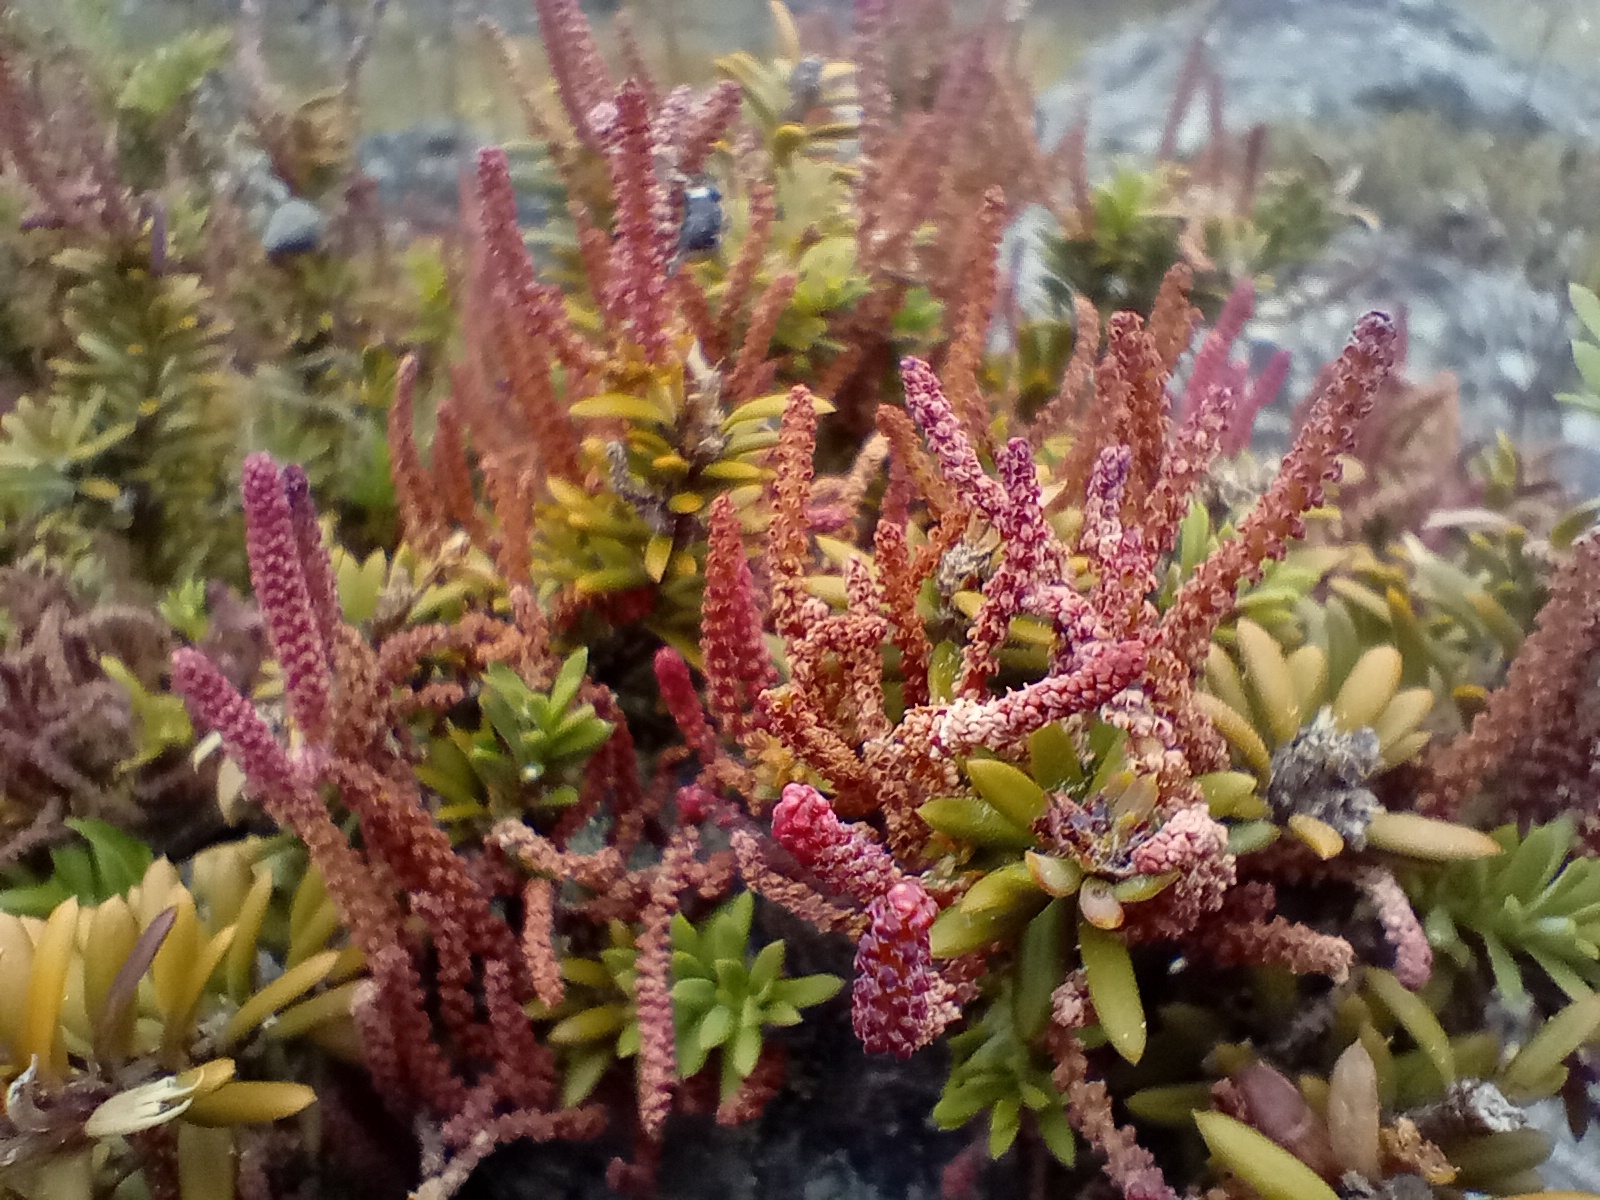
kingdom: Plantae
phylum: Tracheophyta
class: Pinopsida
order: Pinales
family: Podocarpaceae
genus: Podocarpus
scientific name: Podocarpus nivalis
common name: Alpine totara
